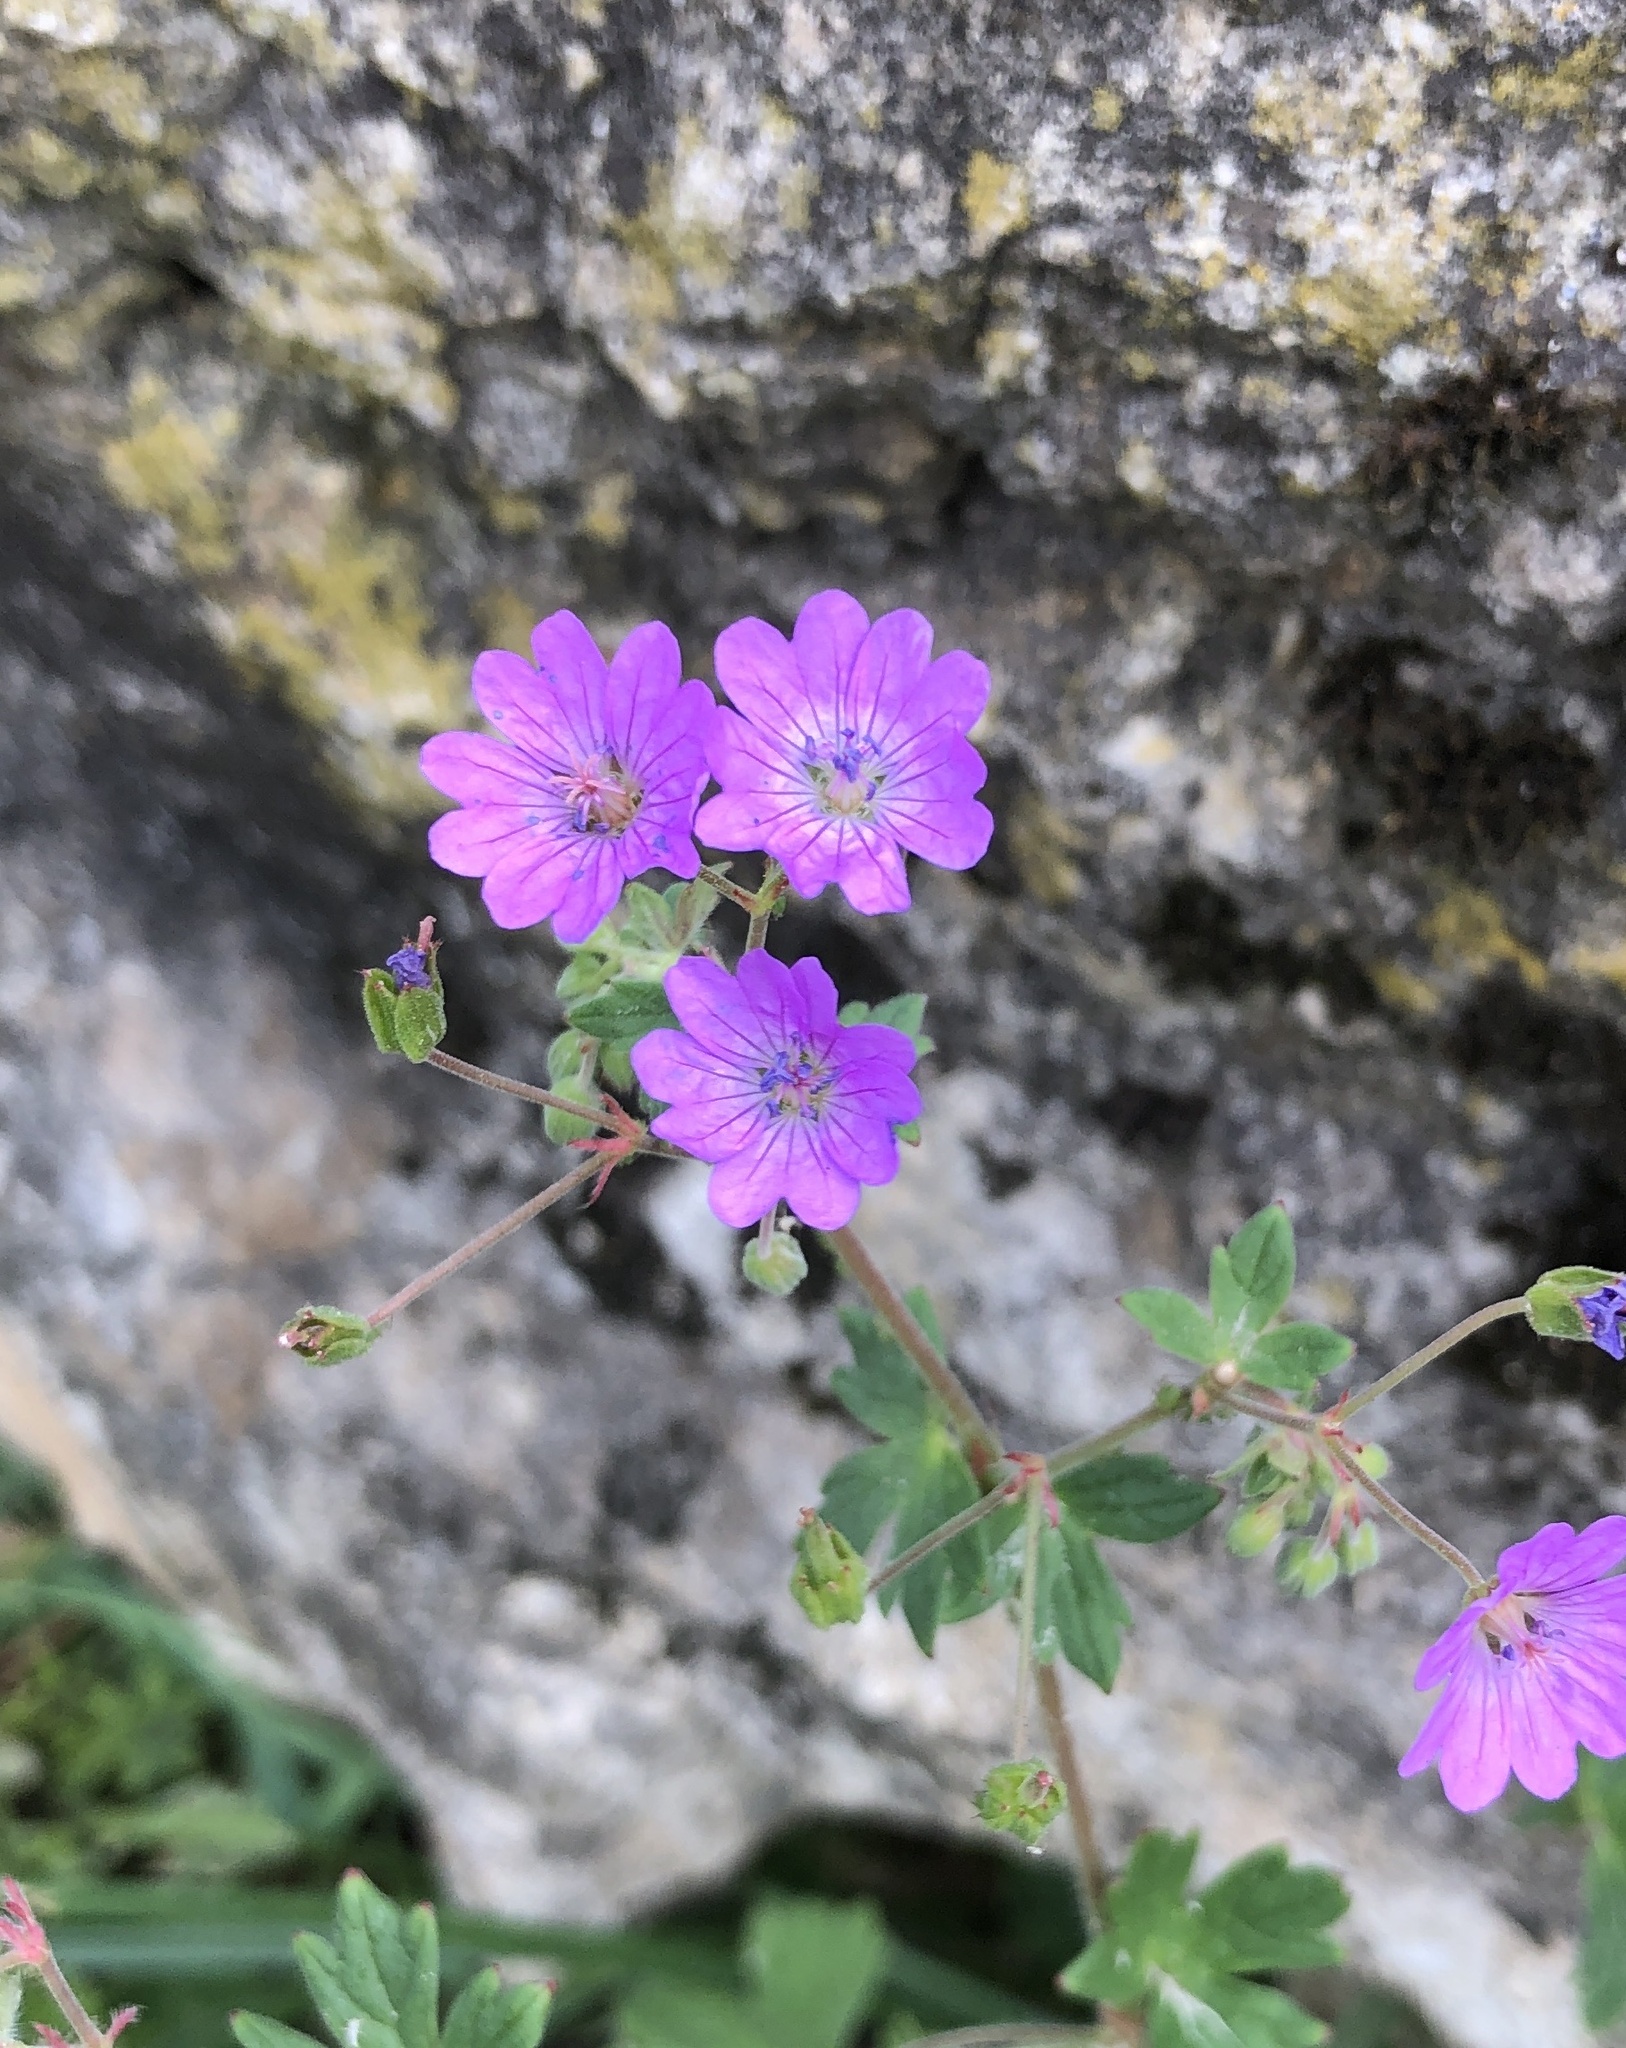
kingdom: Plantae
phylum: Tracheophyta
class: Magnoliopsida
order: Geraniales
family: Geraniaceae
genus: Geranium
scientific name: Geranium pyrenaicum
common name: Hedgerow crane's-bill
